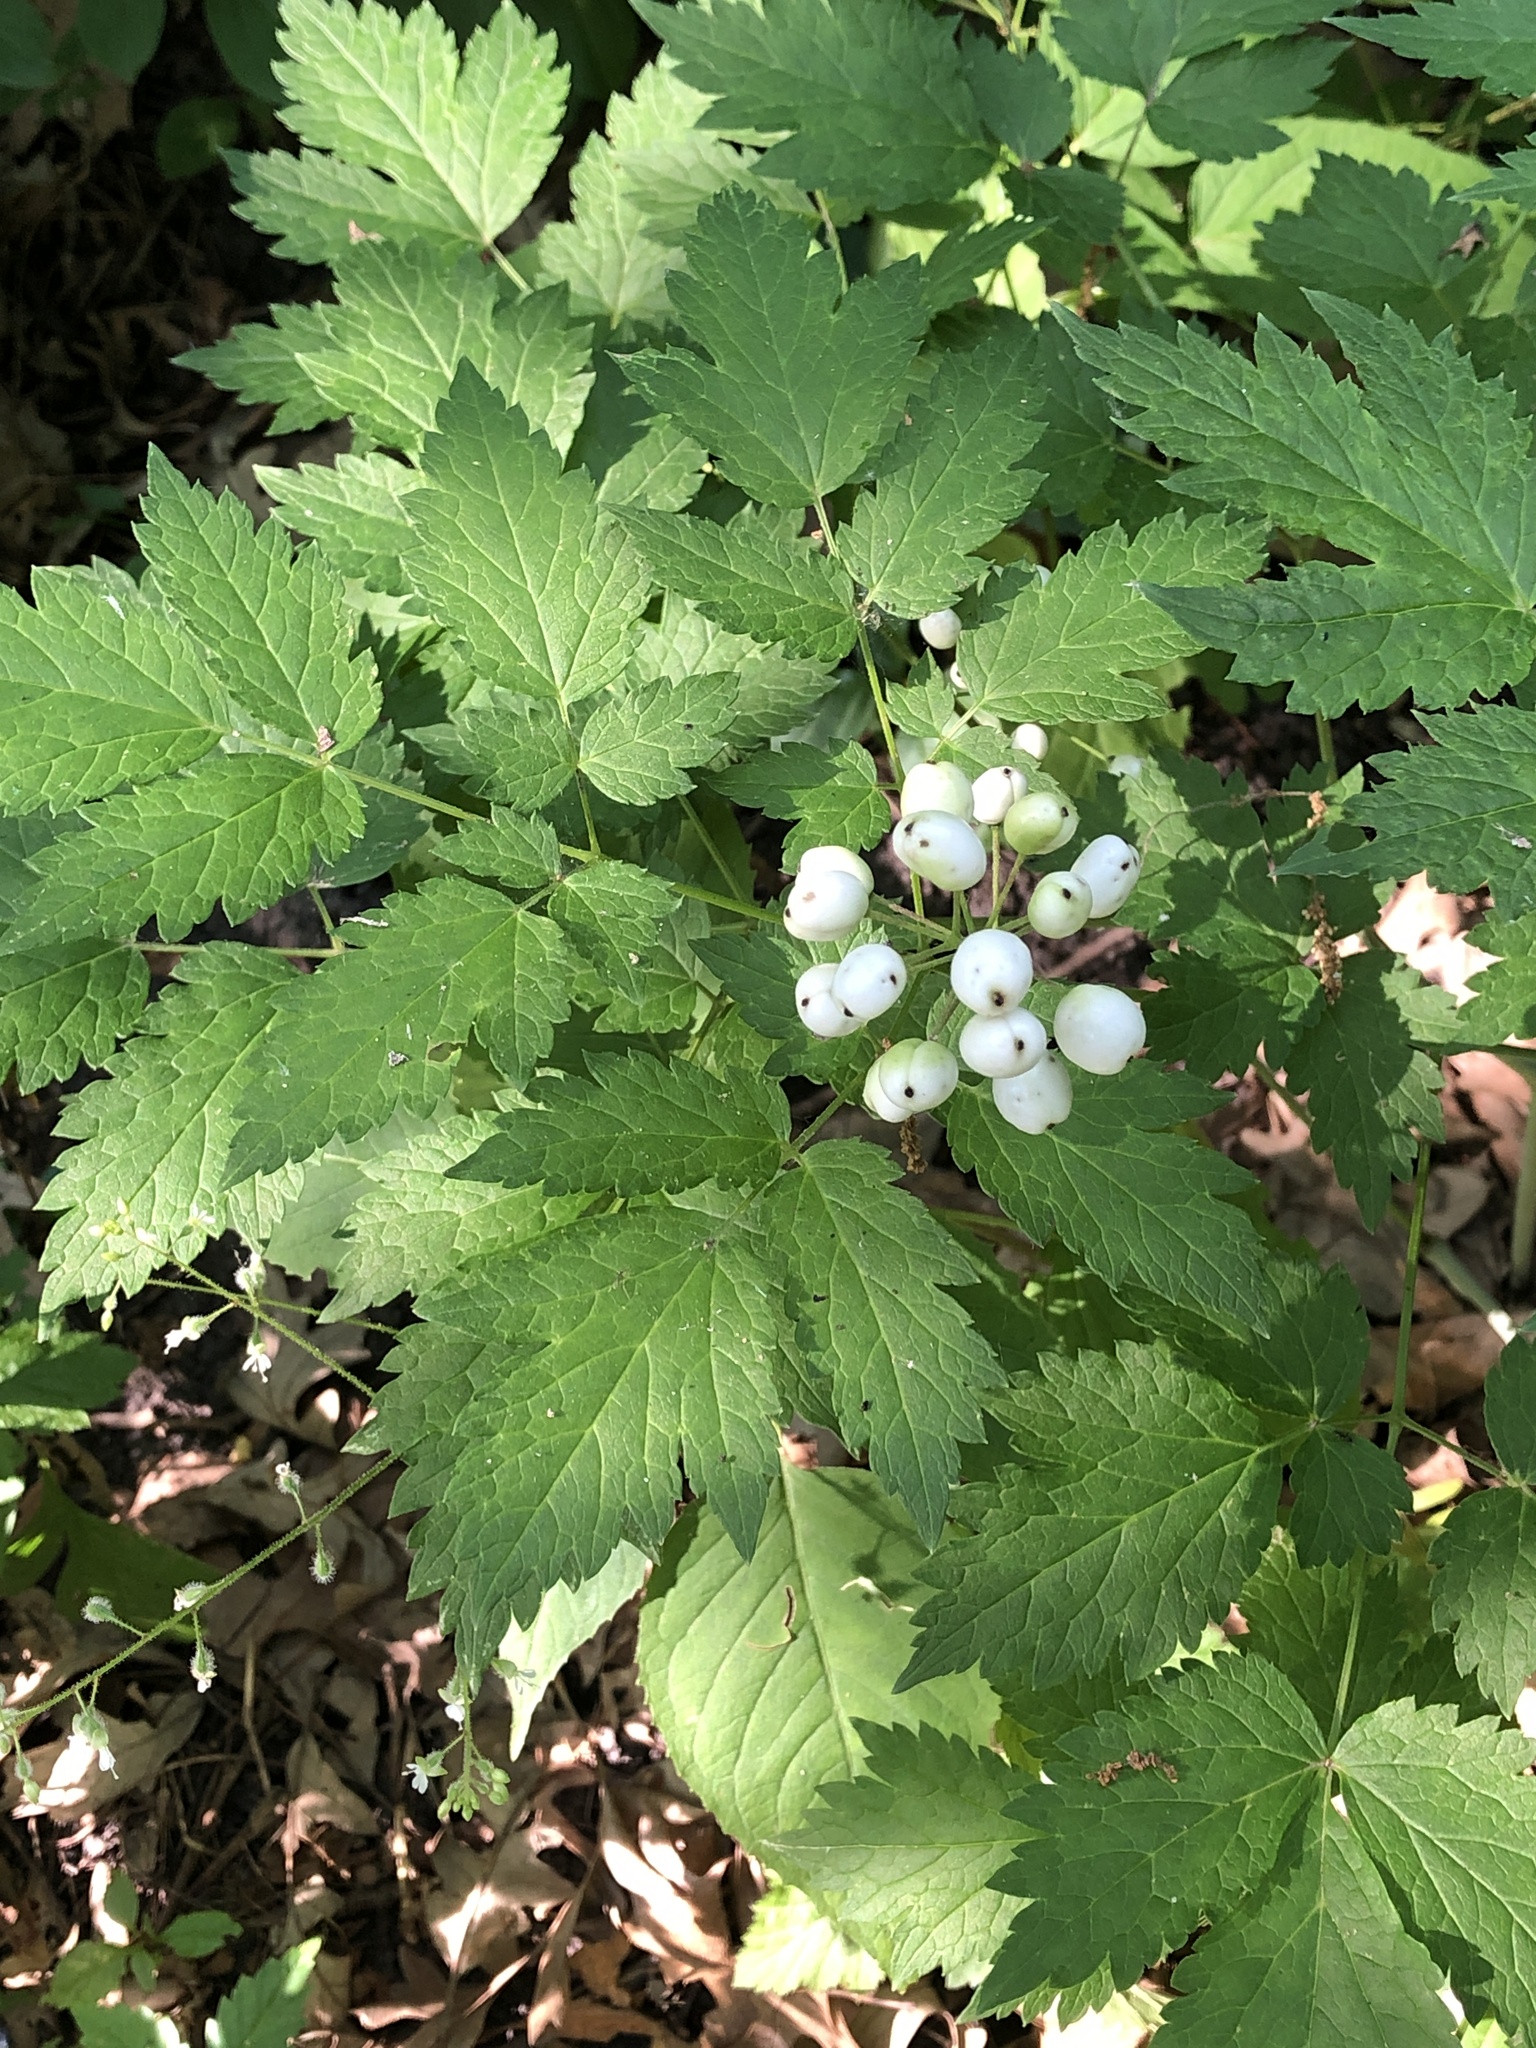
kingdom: Plantae
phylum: Tracheophyta
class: Magnoliopsida
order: Ranunculales
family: Ranunculaceae
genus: Actaea
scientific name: Actaea rubra
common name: Red baneberry
